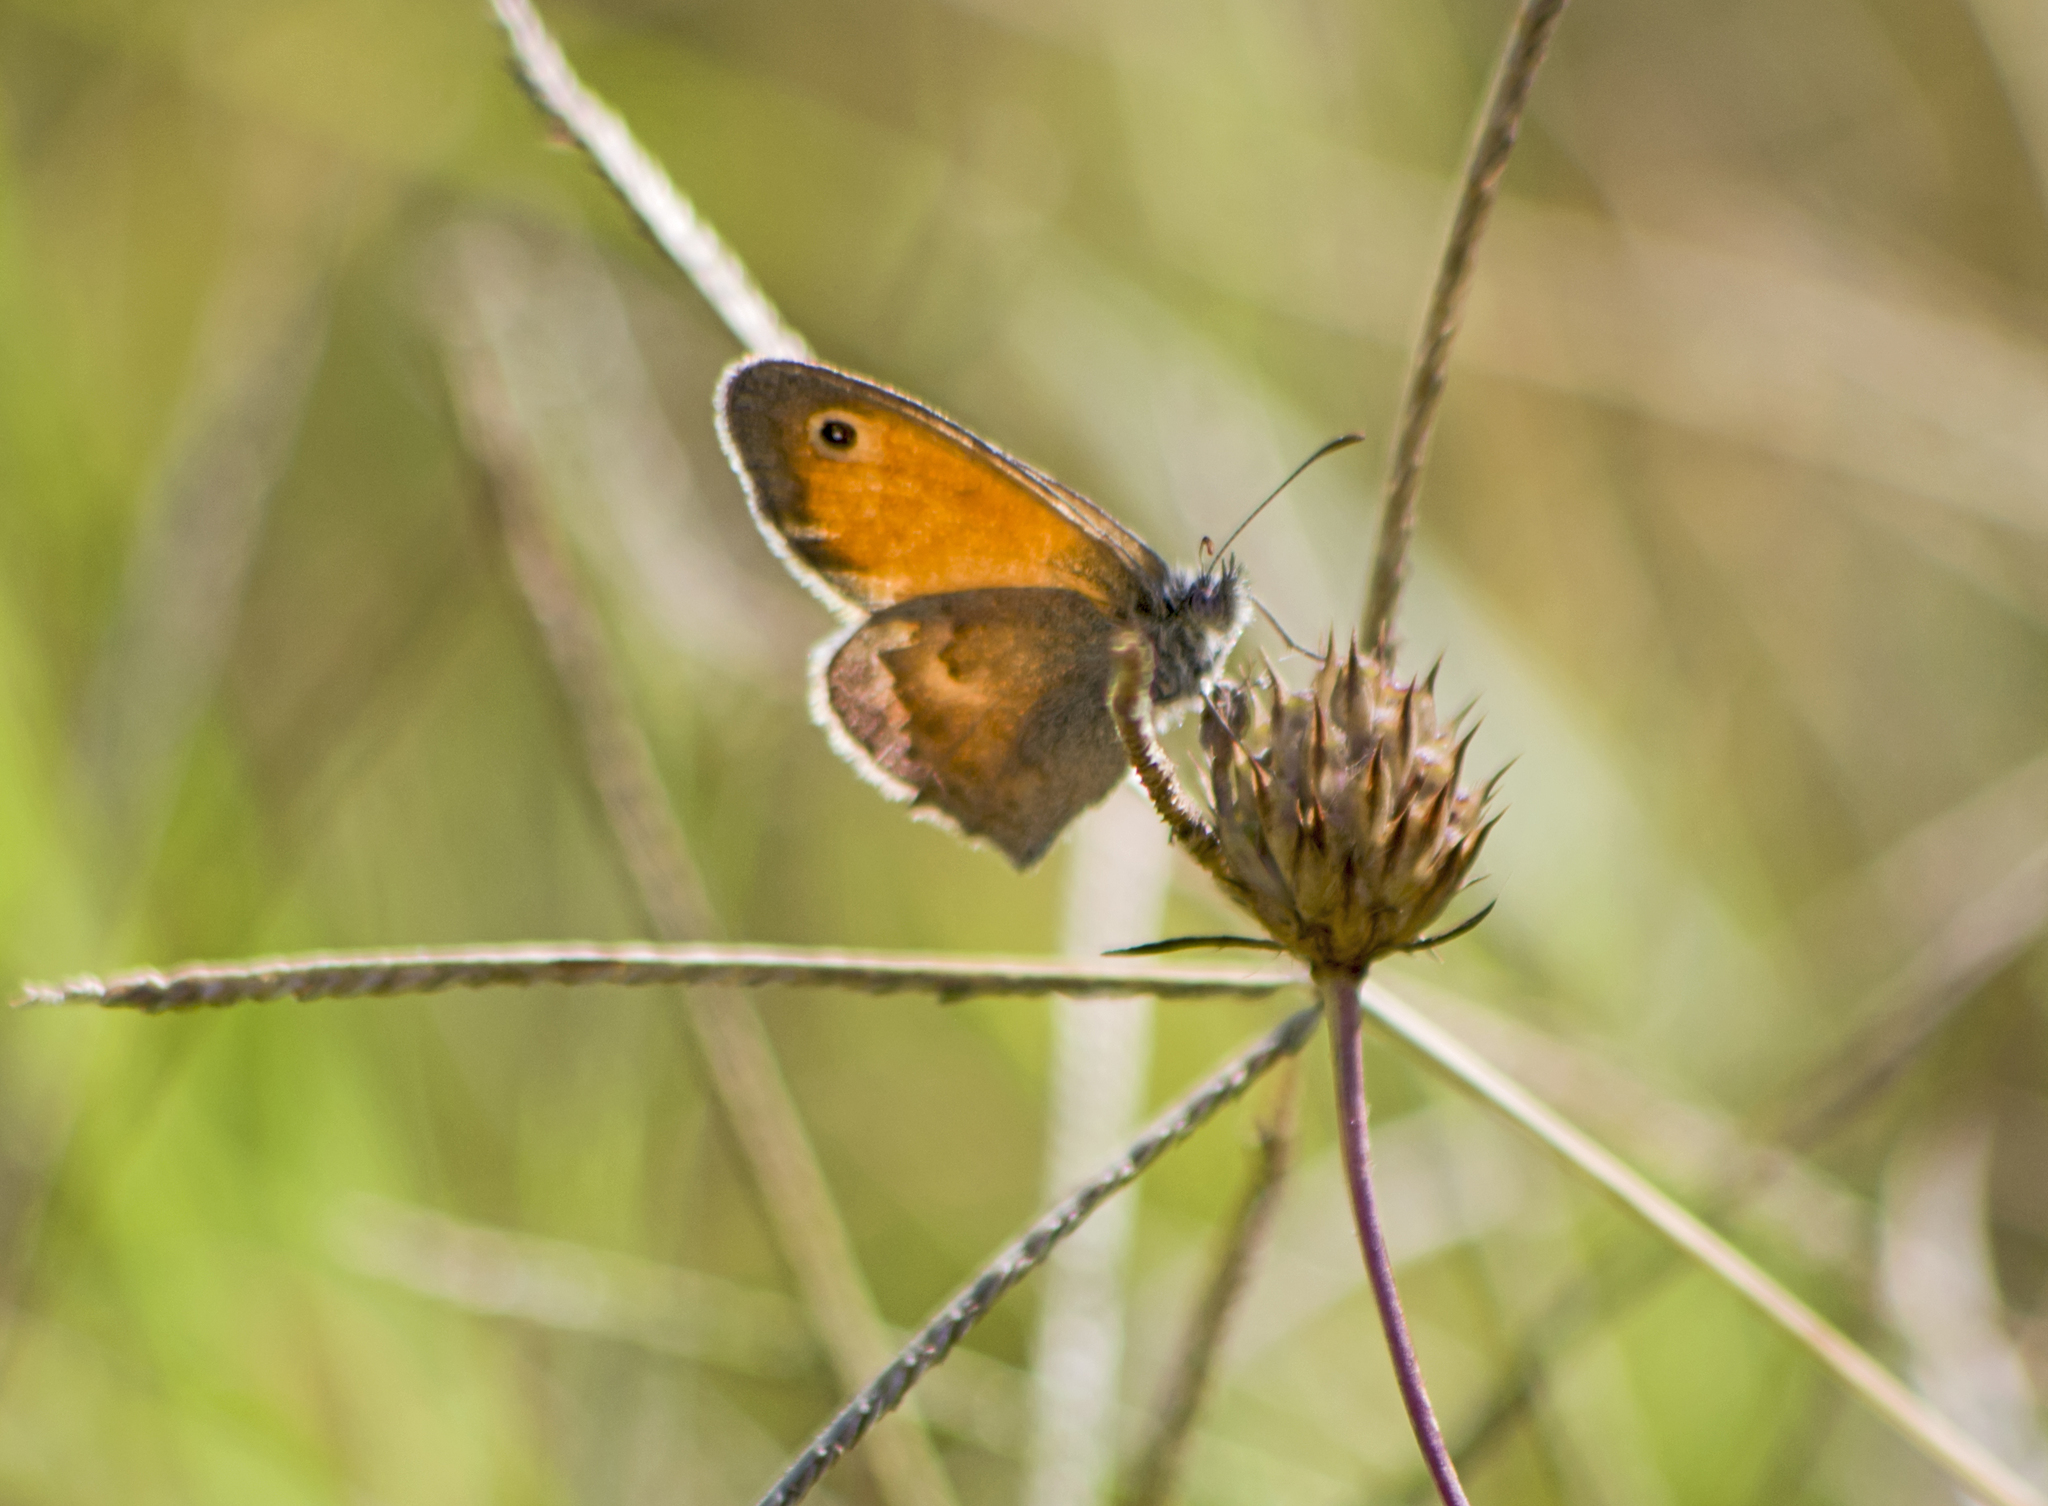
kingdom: Animalia
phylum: Arthropoda
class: Insecta
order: Lepidoptera
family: Nymphalidae
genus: Coenonympha
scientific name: Coenonympha pamphilus
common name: Small heath
